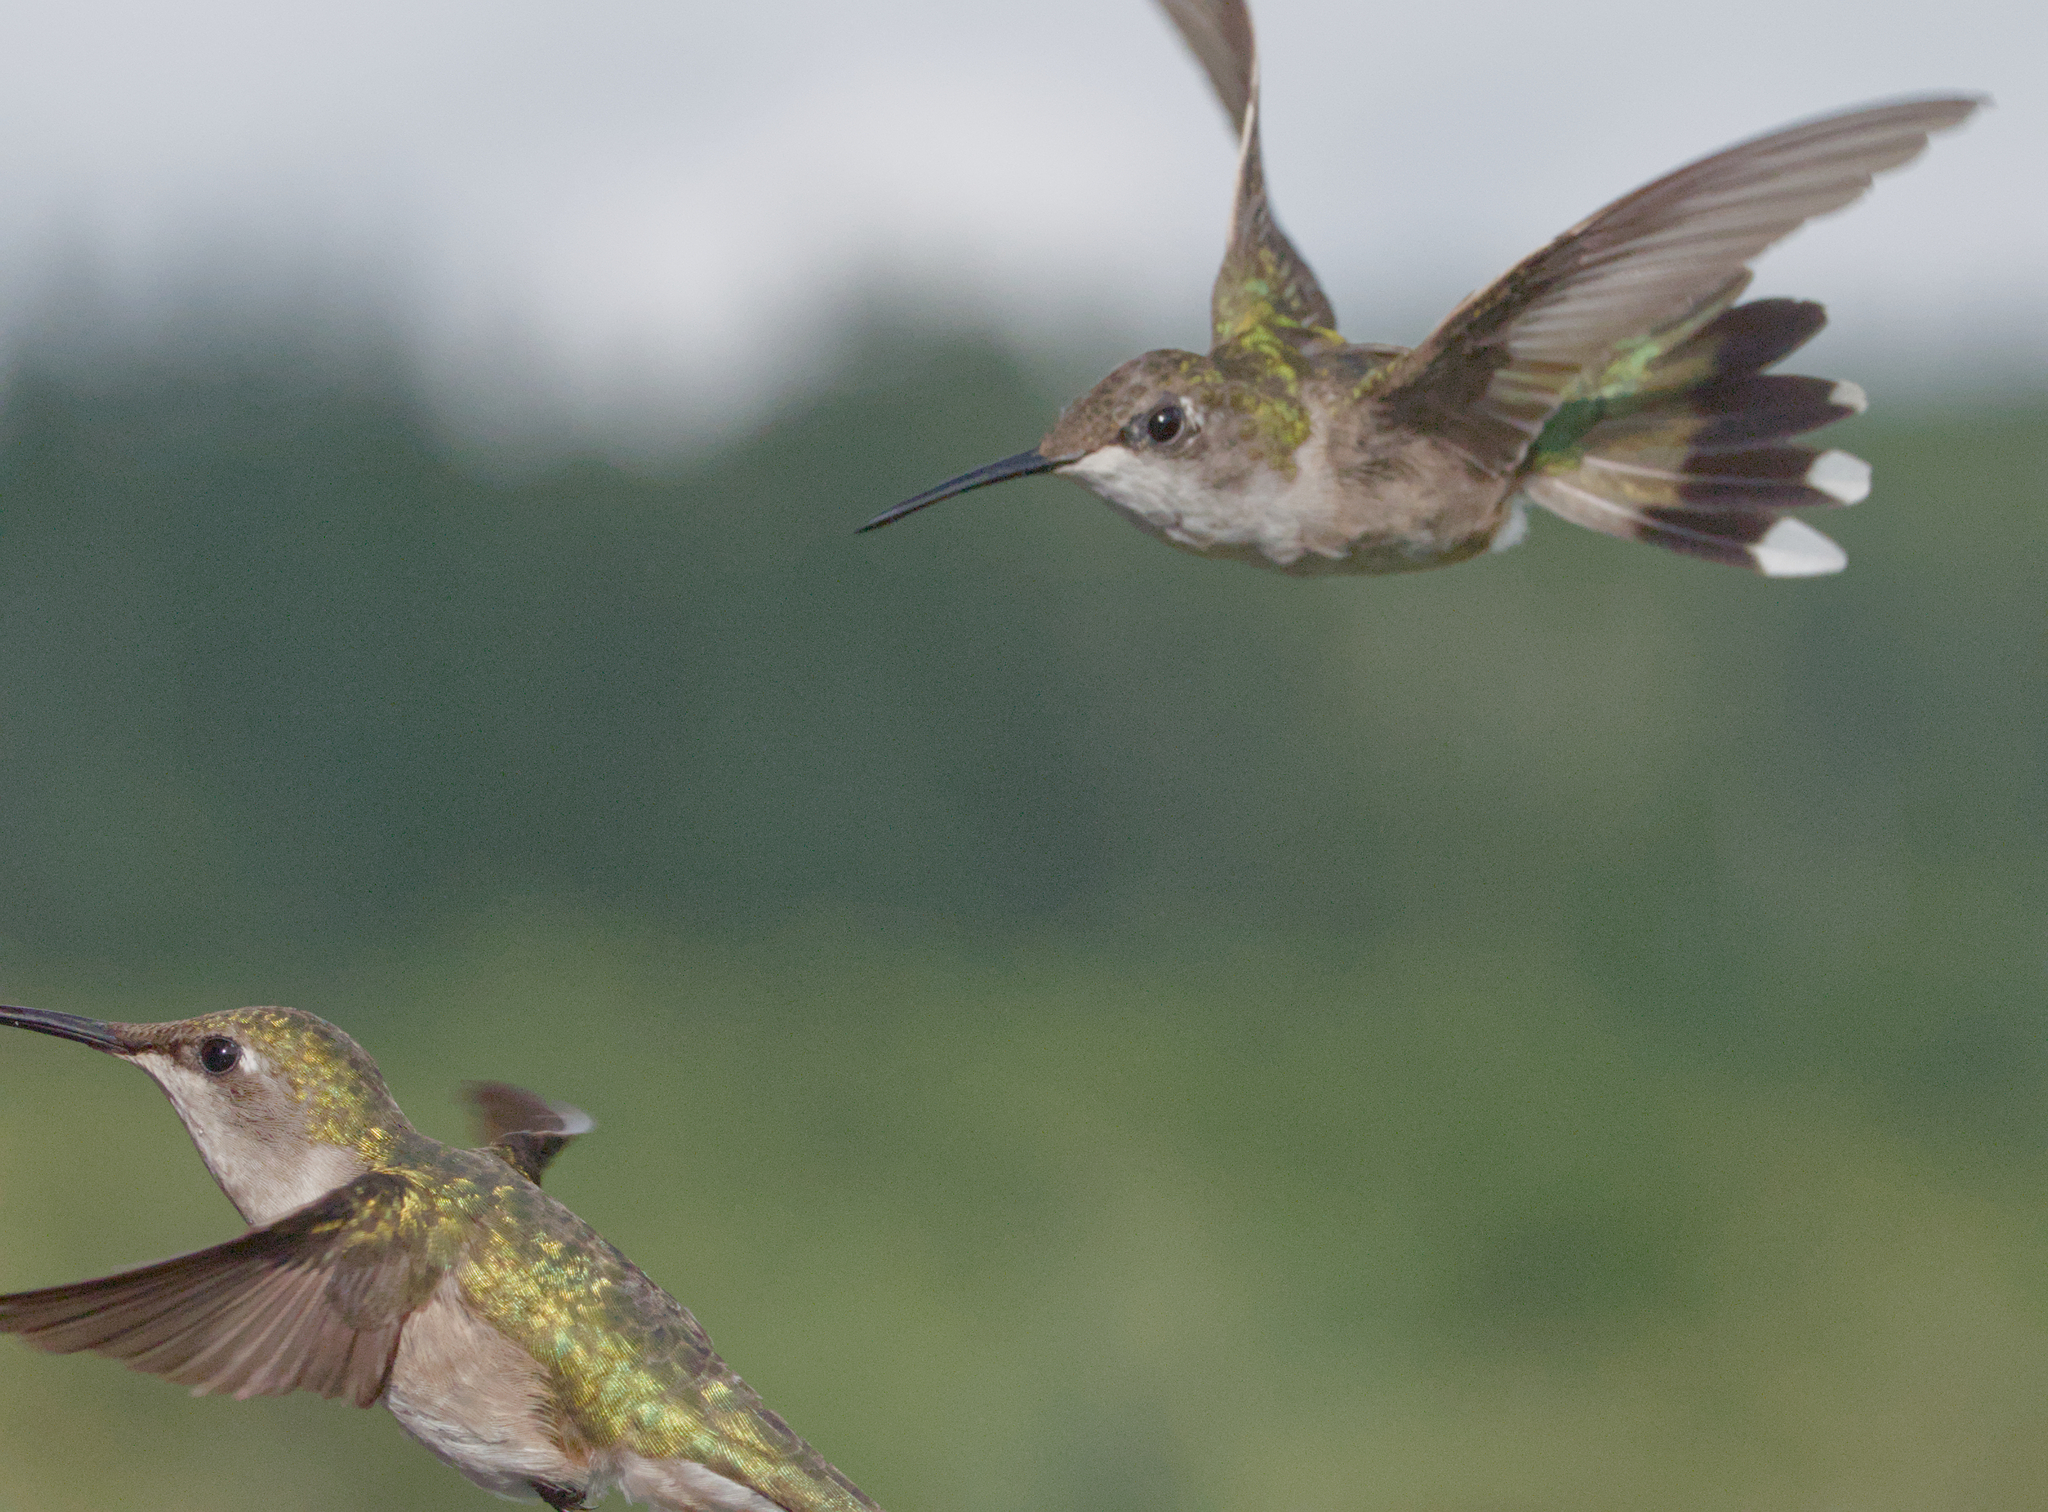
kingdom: Animalia
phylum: Chordata
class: Aves
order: Apodiformes
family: Trochilidae
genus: Archilochus
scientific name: Archilochus colubris
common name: Ruby-throated hummingbird
